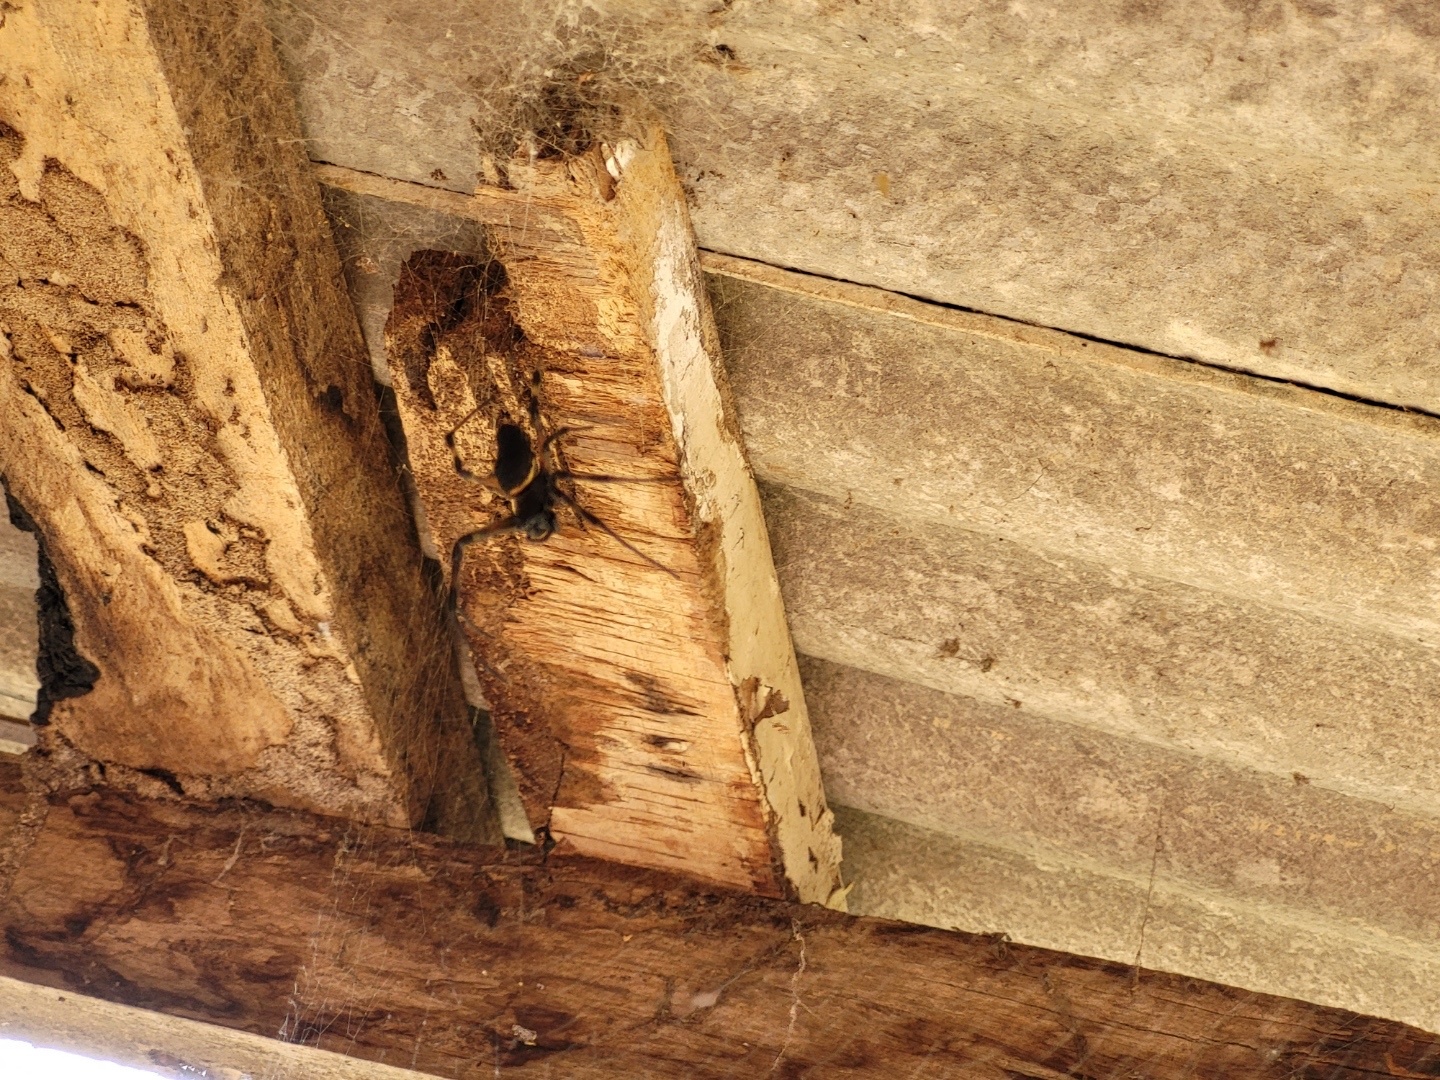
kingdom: Animalia
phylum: Arthropoda
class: Arachnida
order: Araneae
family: Araneidae
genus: Nephilingis
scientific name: Nephilingis cruentata
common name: African hermit spider
